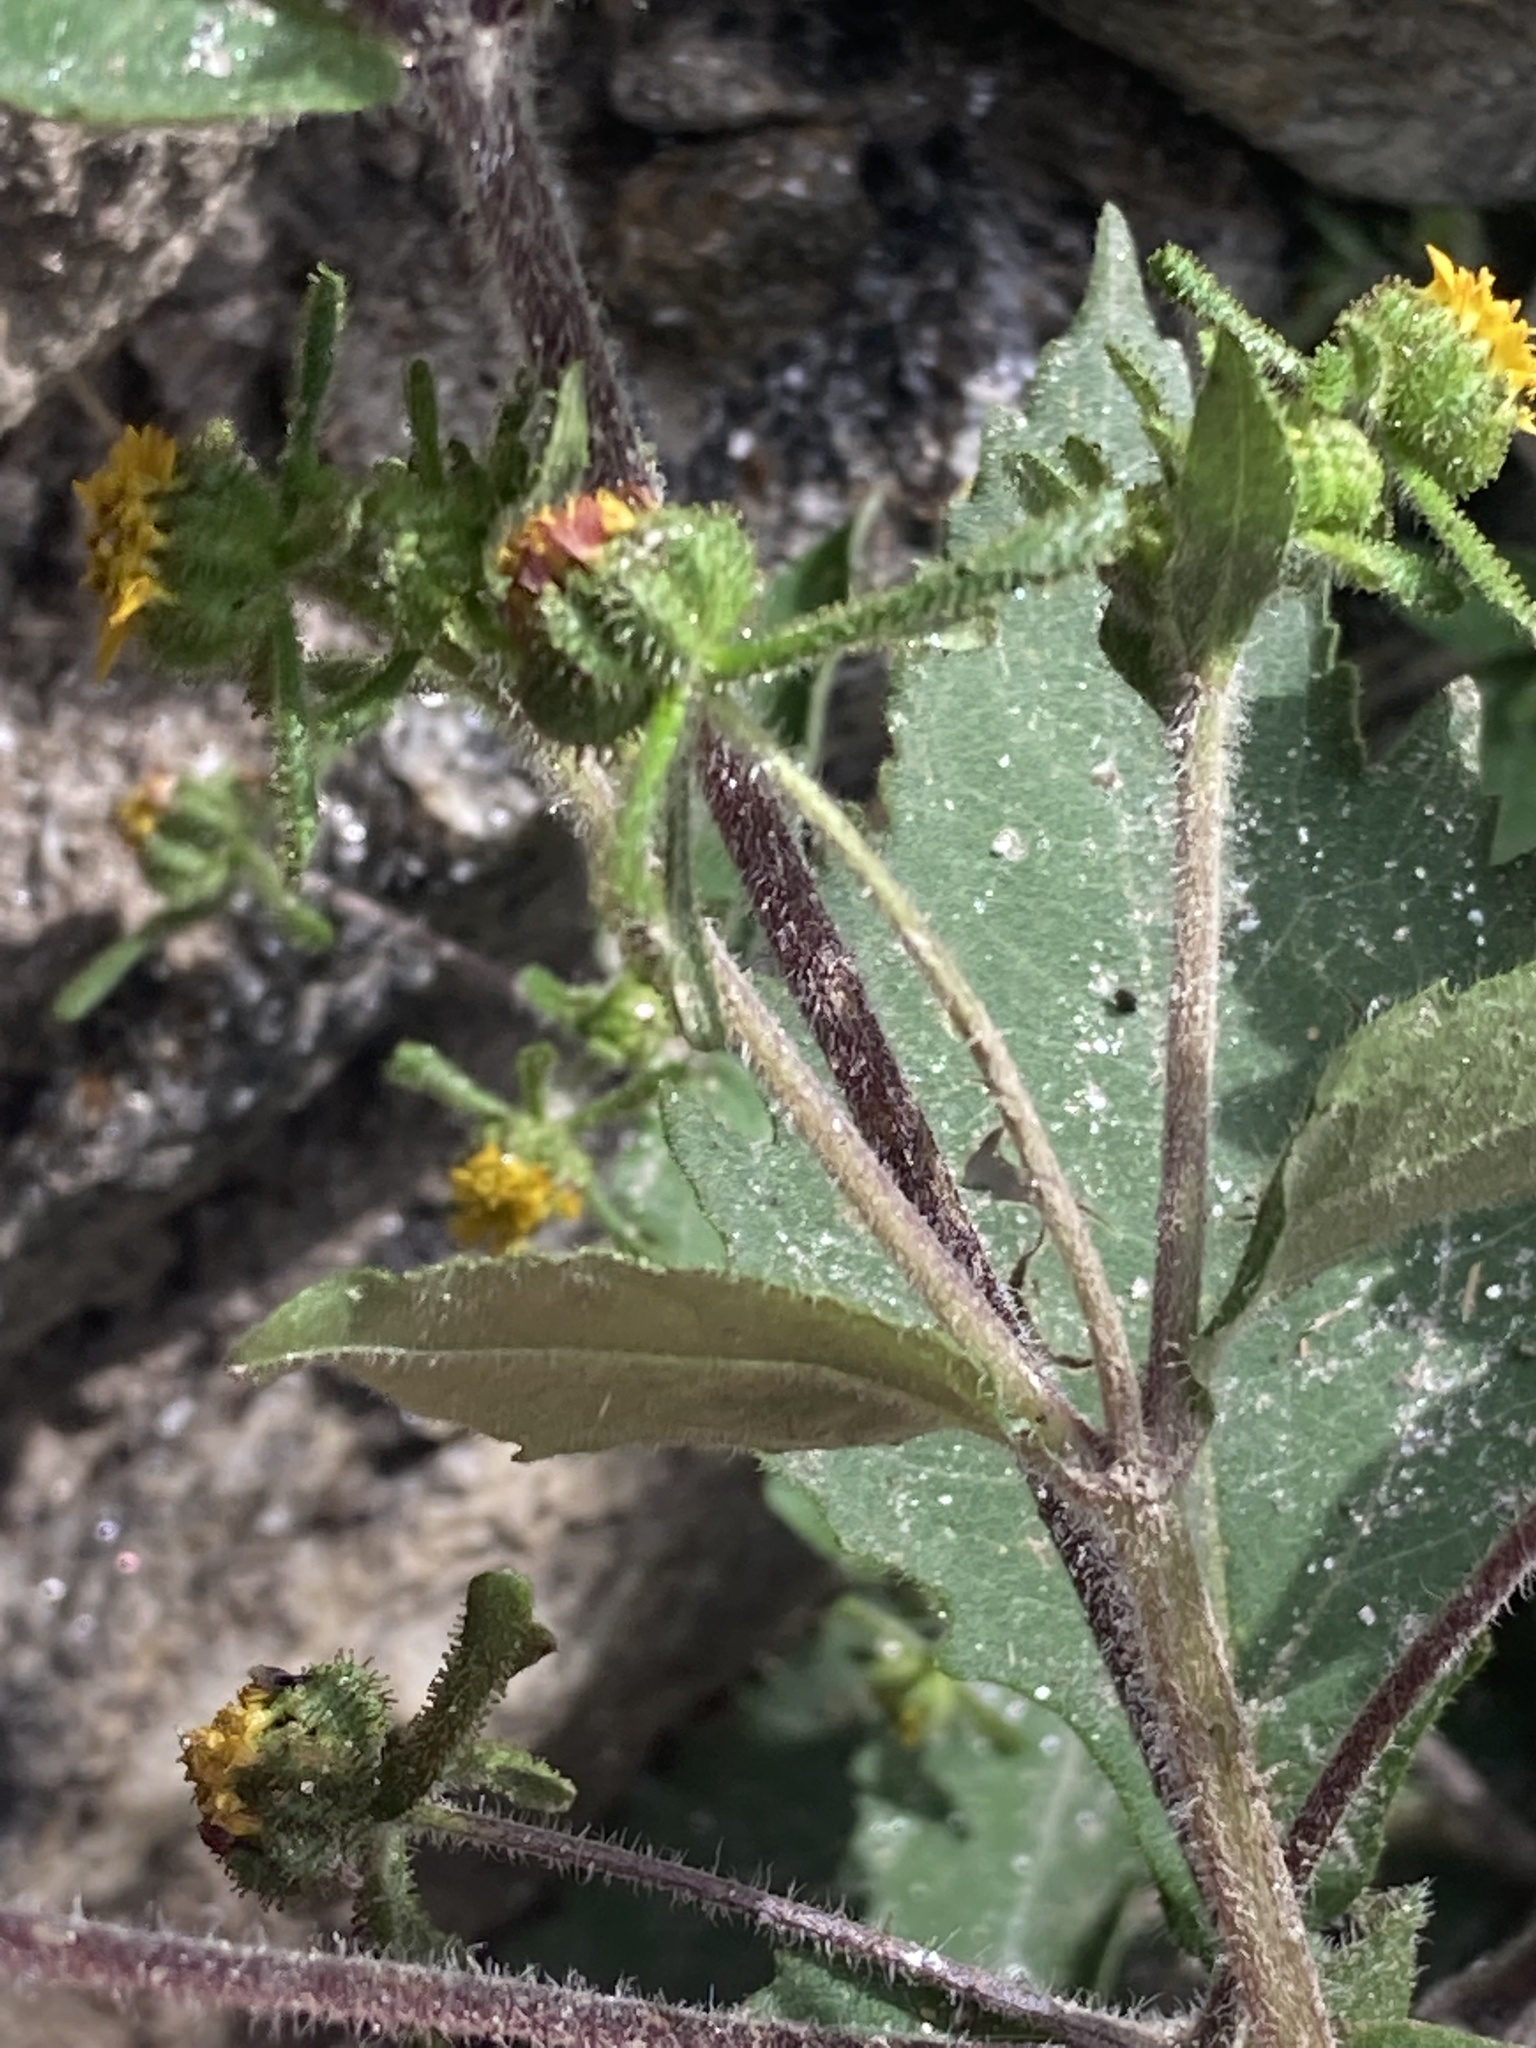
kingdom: Plantae
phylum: Tracheophyta
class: Magnoliopsida
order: Asterales
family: Asteraceae
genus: Sigesbeckia
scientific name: Sigesbeckia orientalis
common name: Eastern st paul's-wort
